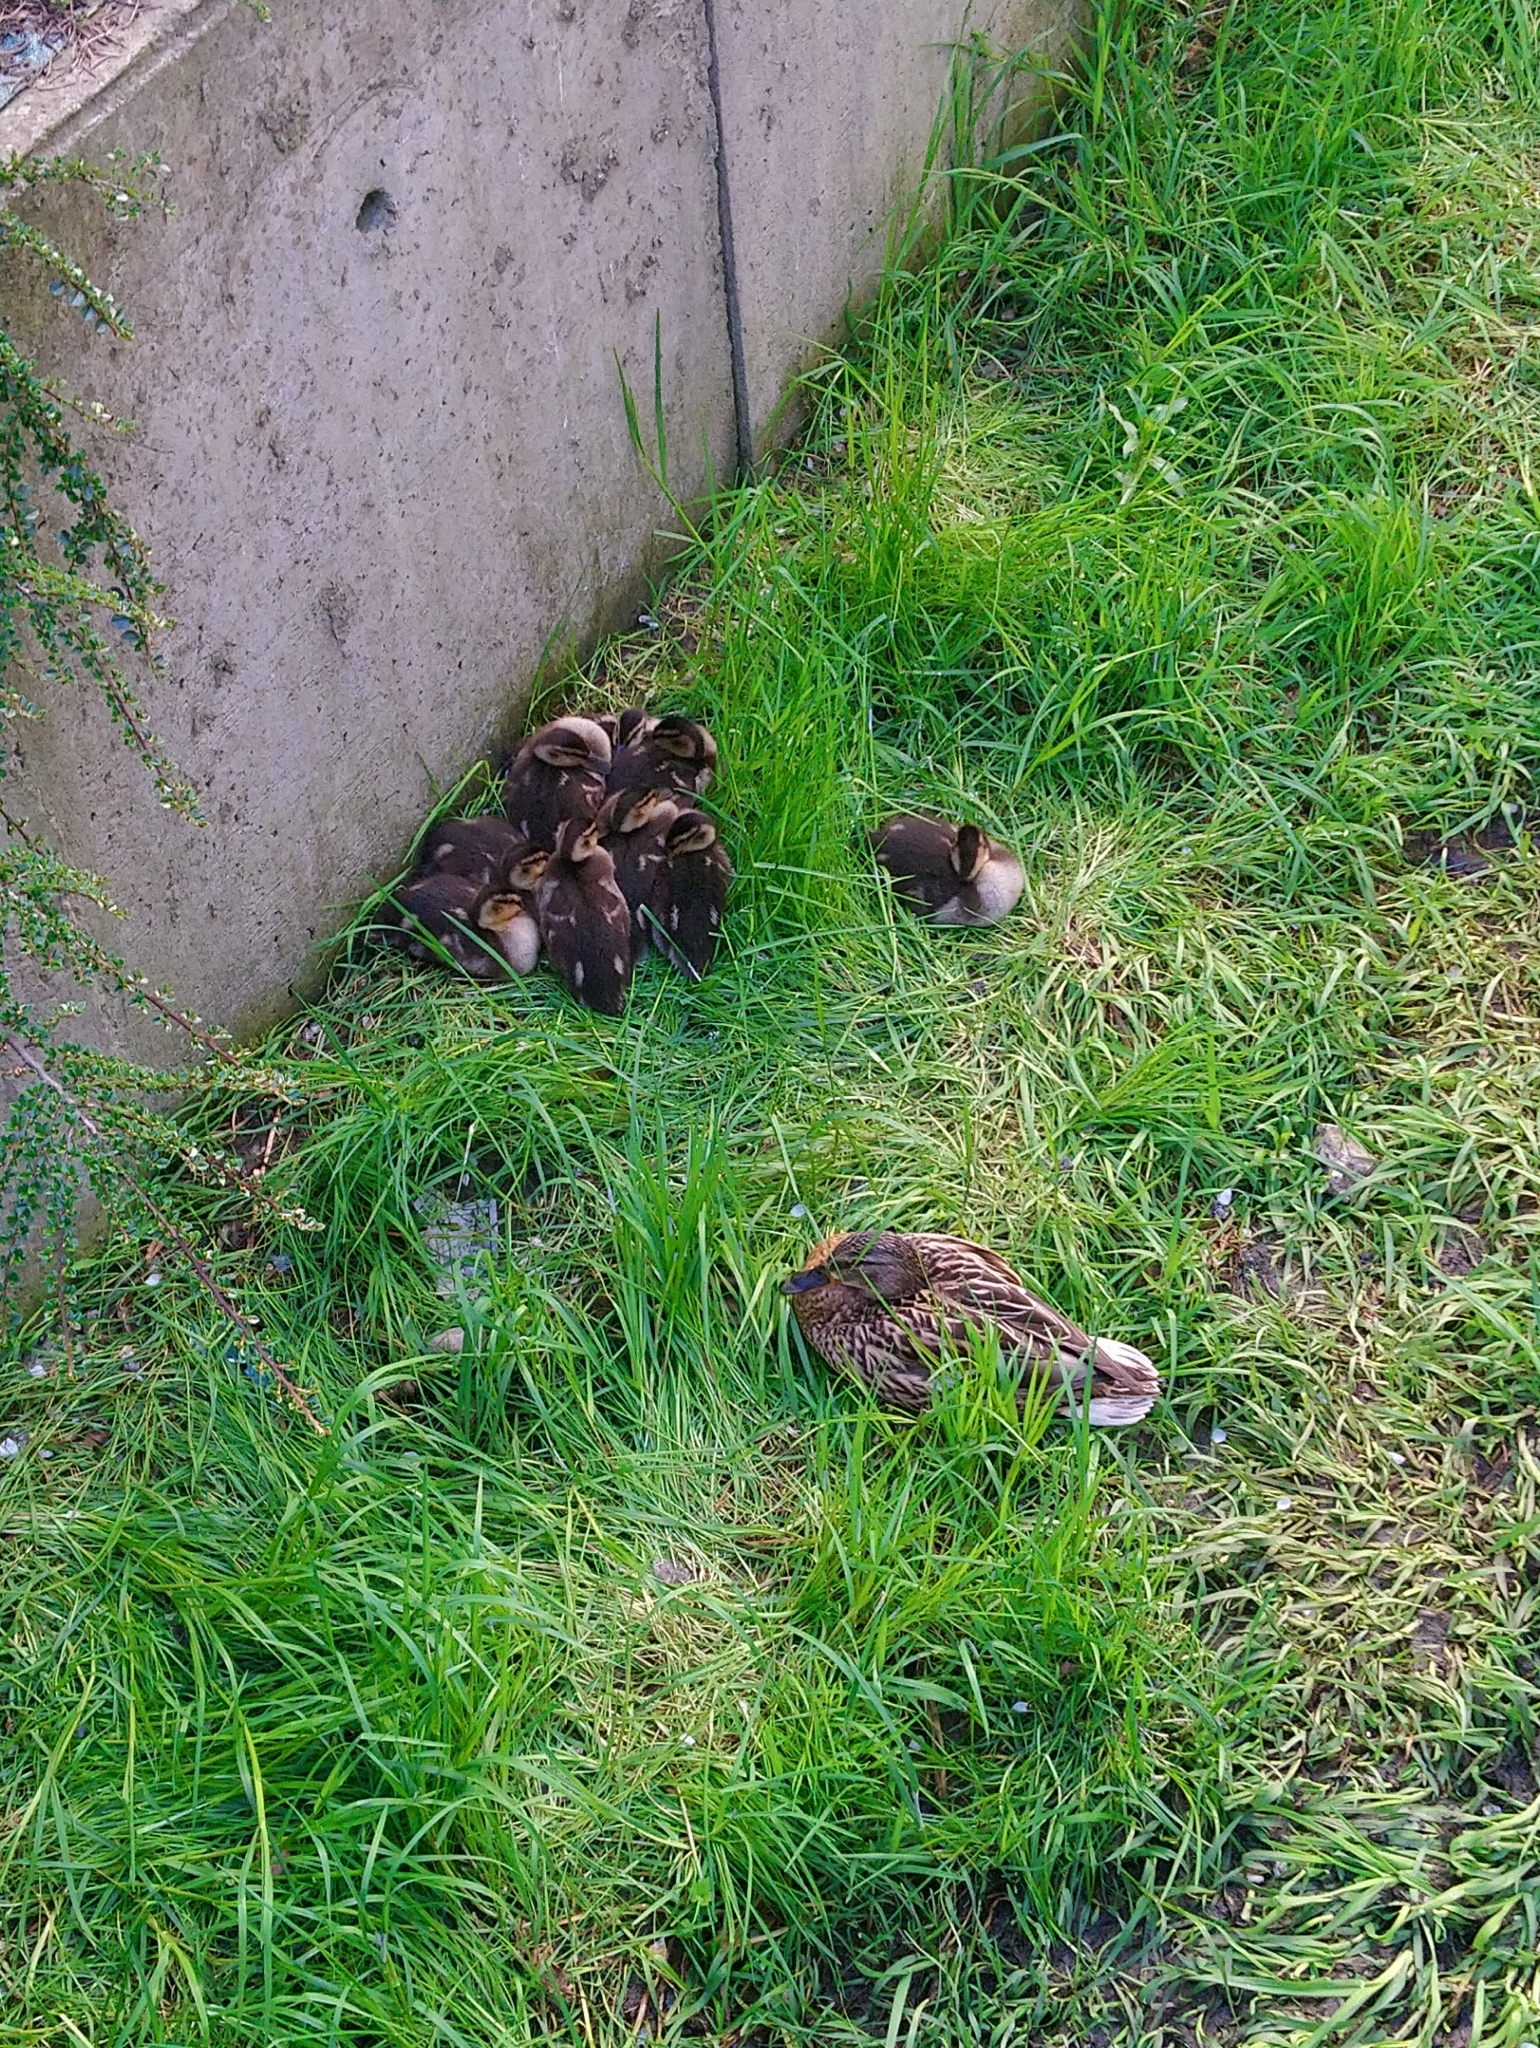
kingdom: Animalia
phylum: Chordata
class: Aves
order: Anseriformes
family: Anatidae
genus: Anas
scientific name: Anas platyrhynchos
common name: Mallard
